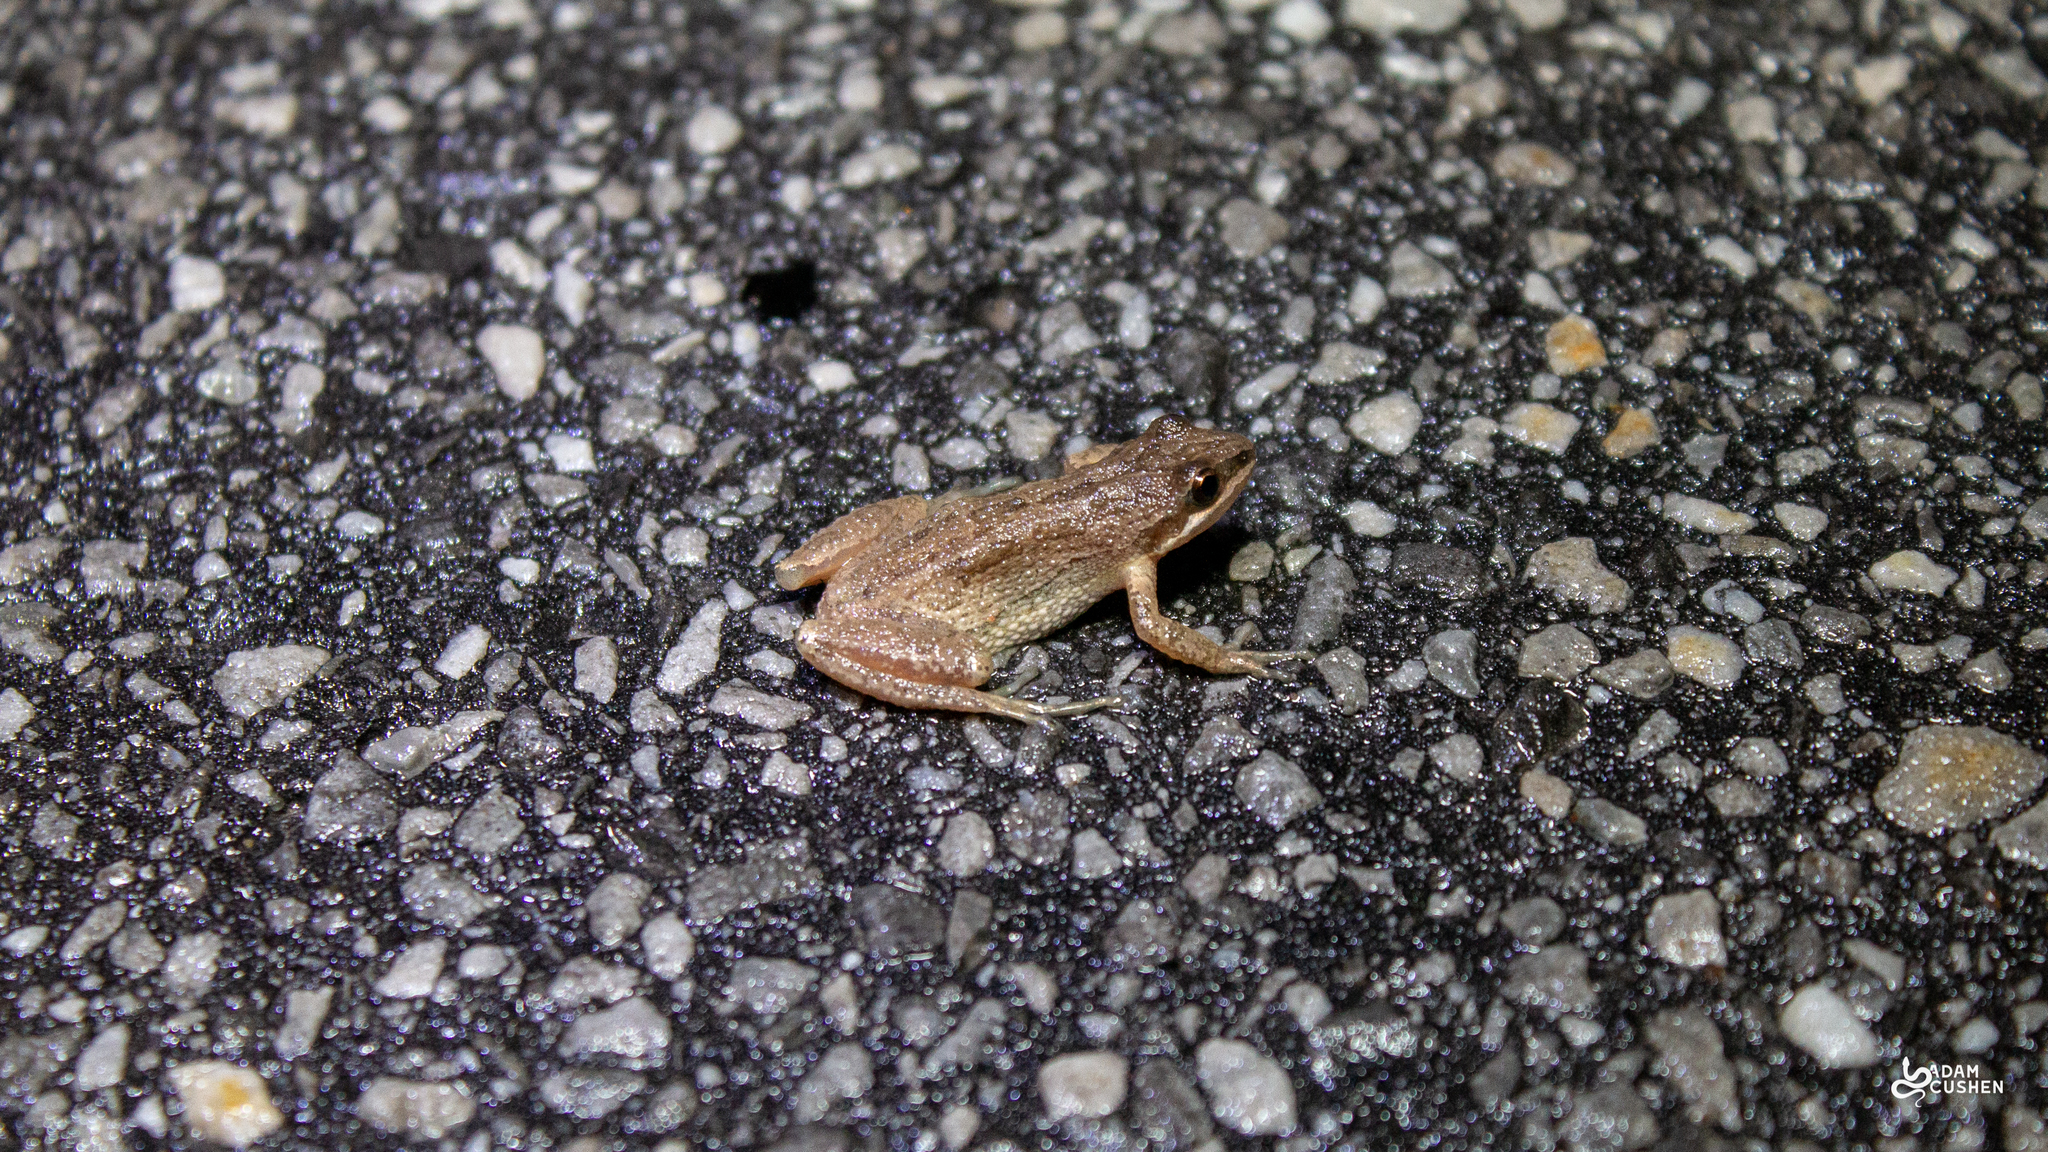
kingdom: Animalia
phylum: Chordata
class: Amphibia
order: Anura
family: Hylidae
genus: Pseudacris
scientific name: Pseudacris maculata
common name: Boreal chorus frog
